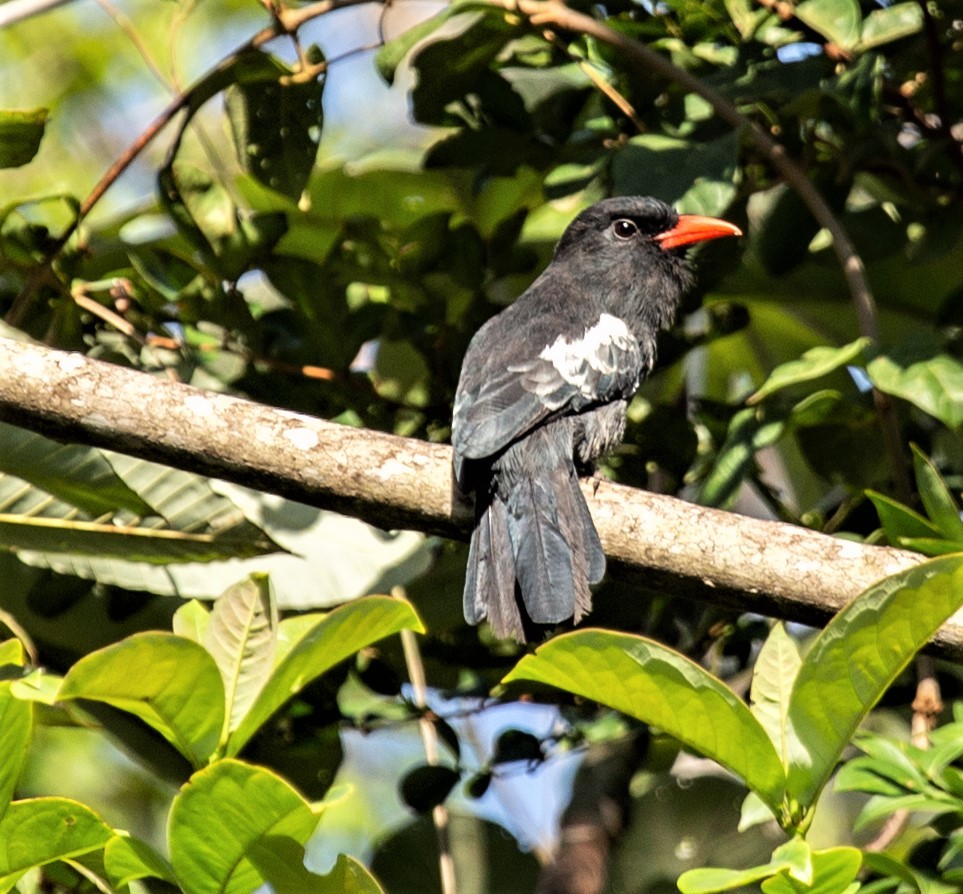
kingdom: Animalia
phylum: Chordata
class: Aves
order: Piciformes
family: Bucconidae
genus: Monasa
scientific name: Monasa atra
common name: Black nunbird
